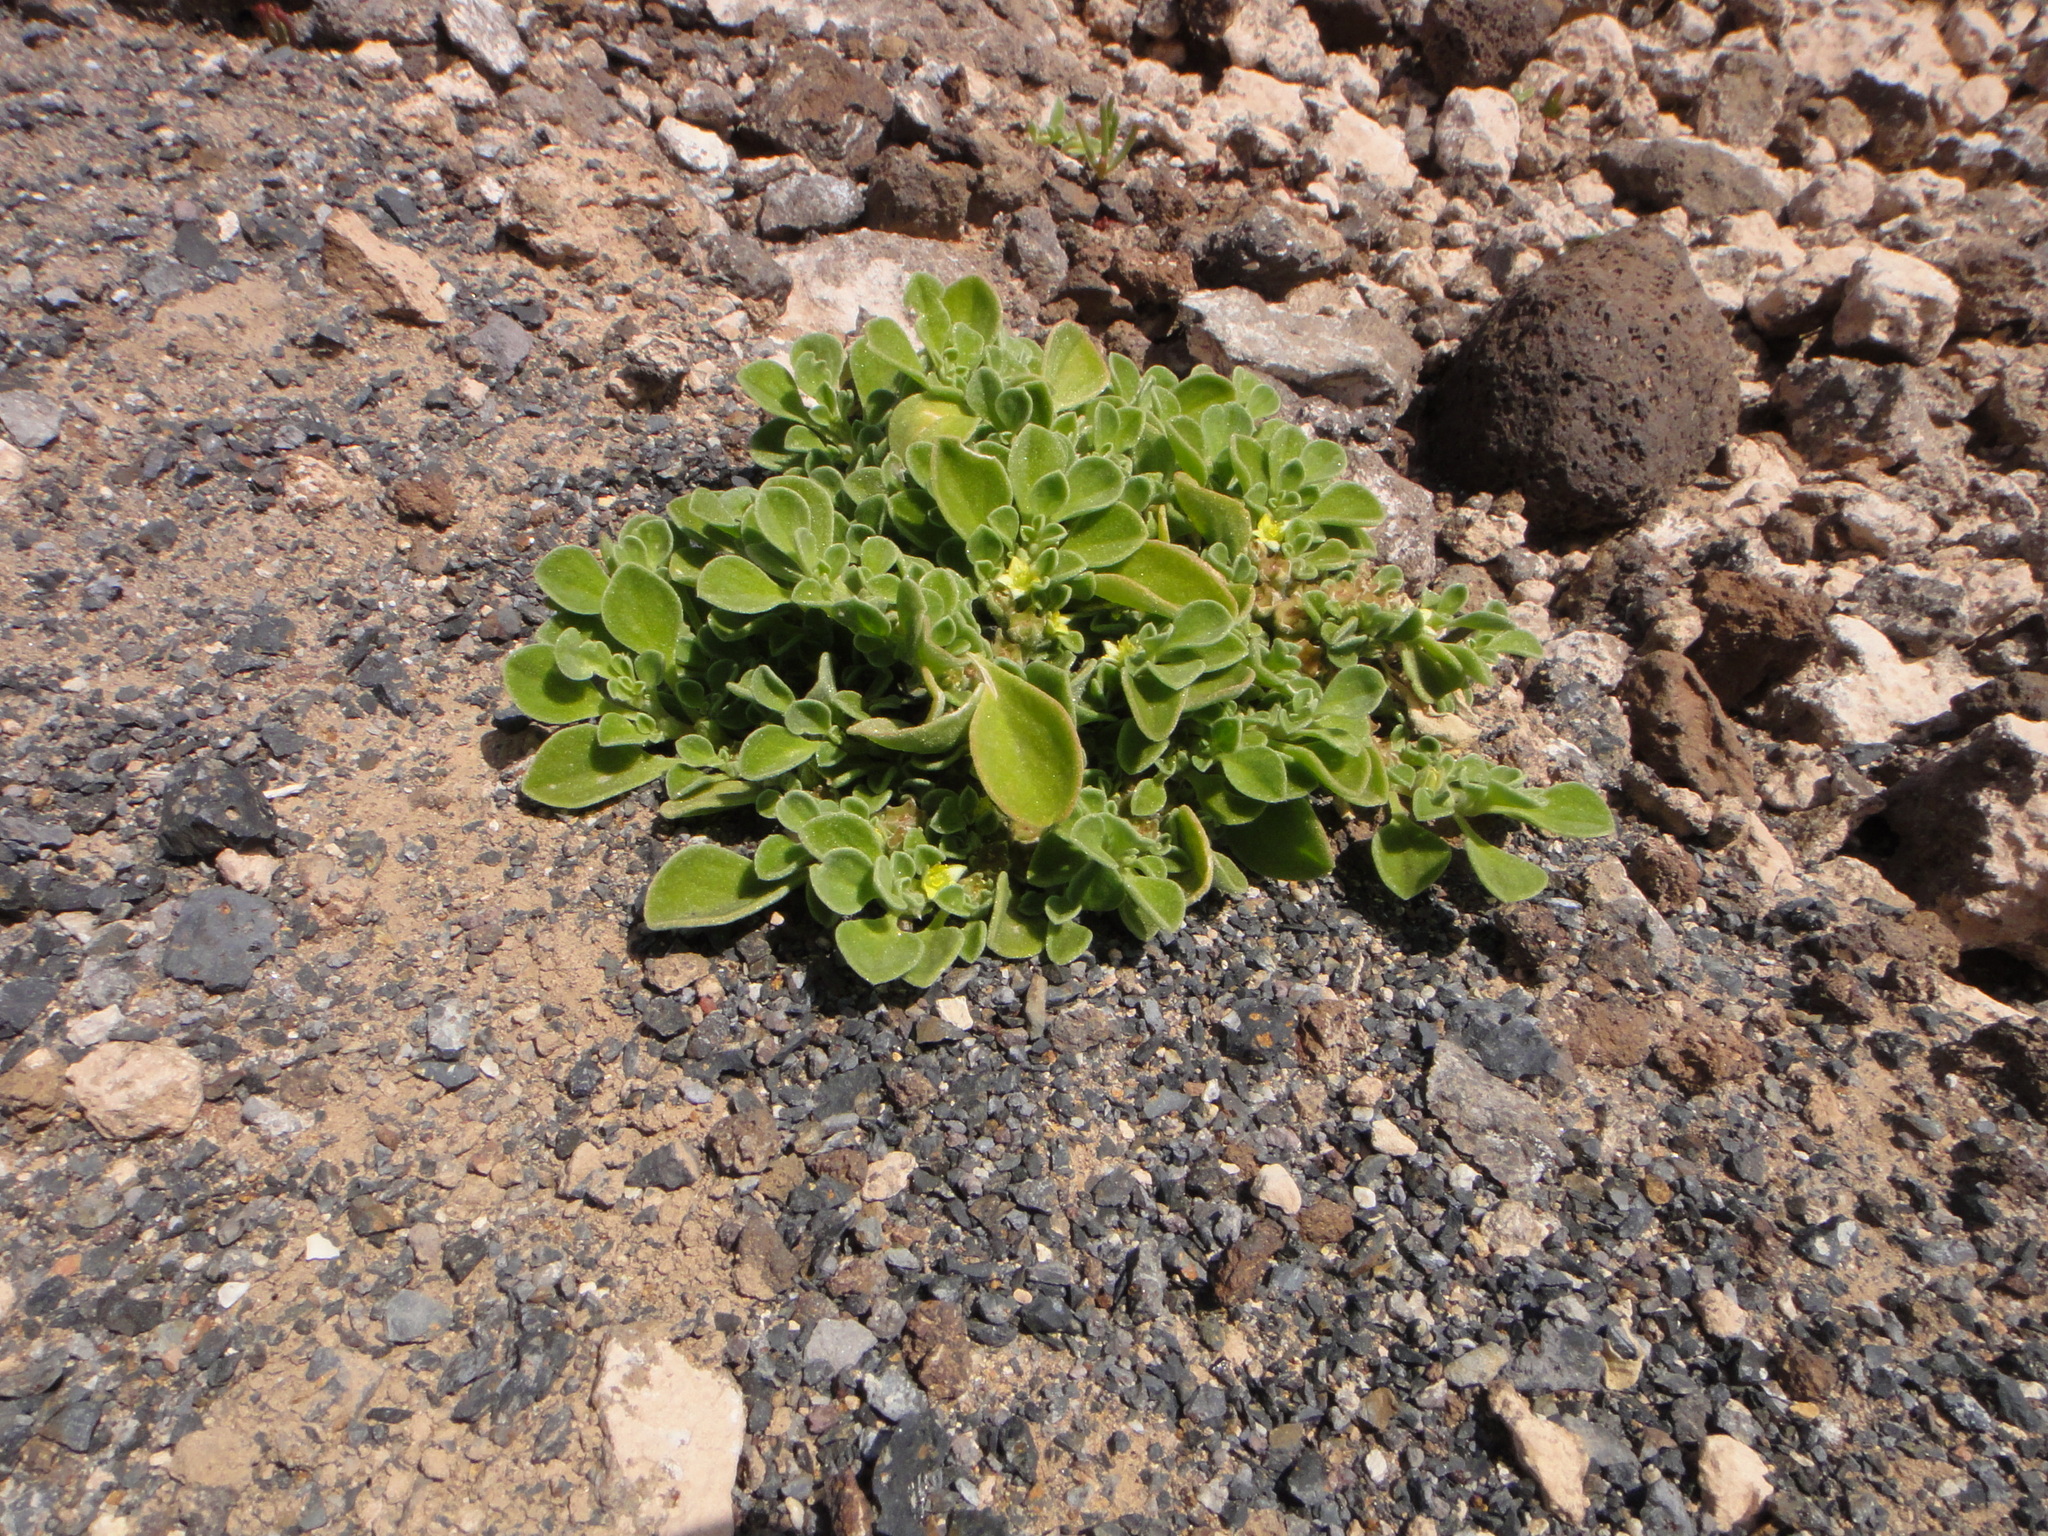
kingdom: Plantae
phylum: Tracheophyta
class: Magnoliopsida
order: Caryophyllales
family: Aizoaceae
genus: Aizoon
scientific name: Aizoon canariense
